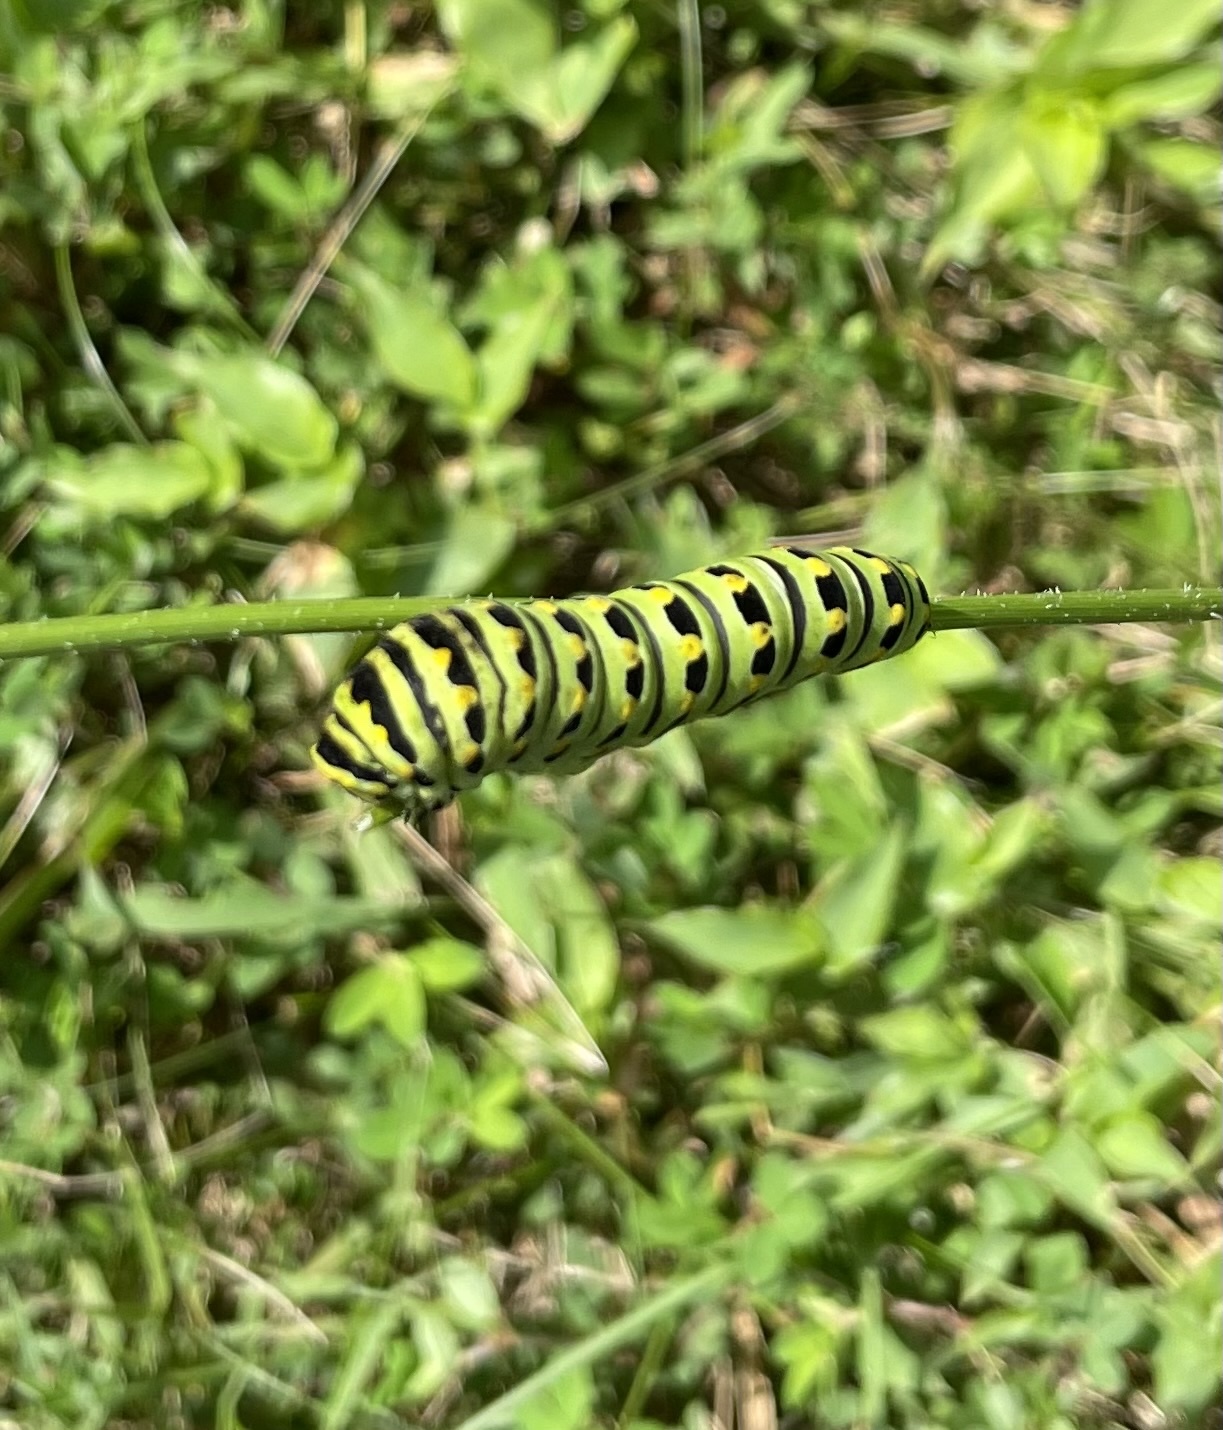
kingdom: Animalia
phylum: Arthropoda
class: Insecta
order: Lepidoptera
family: Papilionidae
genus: Papilio
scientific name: Papilio polyxenes
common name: Black swallowtail
